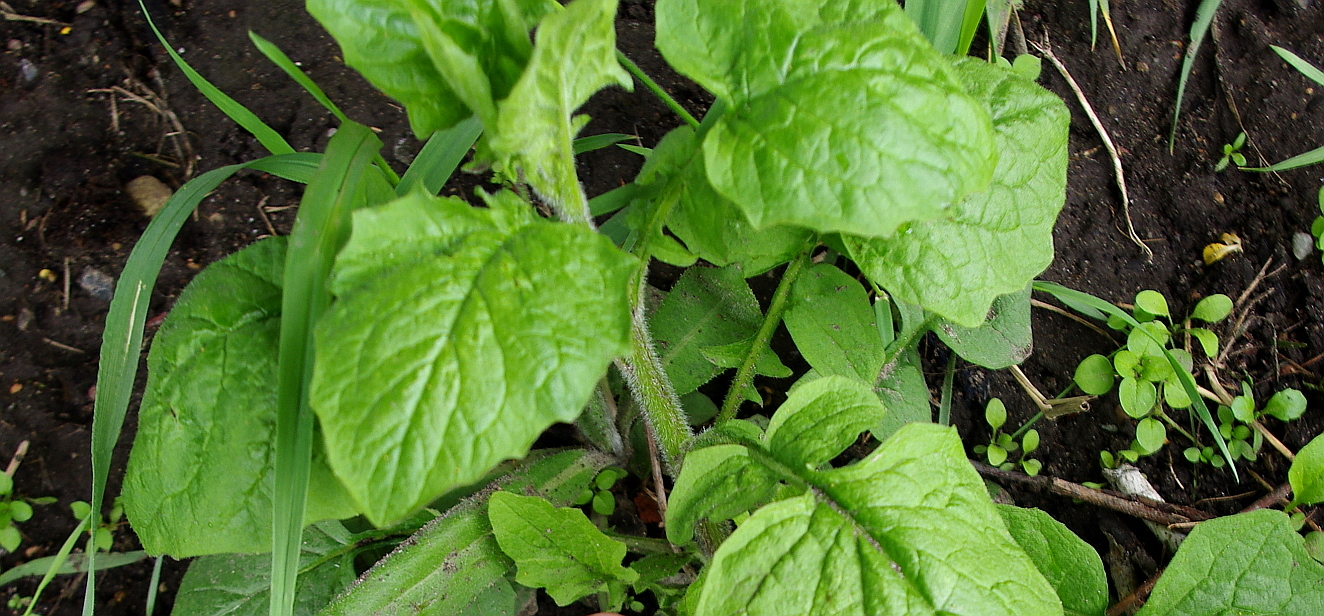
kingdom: Plantae
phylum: Tracheophyta
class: Magnoliopsida
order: Asterales
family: Asteraceae
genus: Lapsana
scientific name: Lapsana communis
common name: Nipplewort
